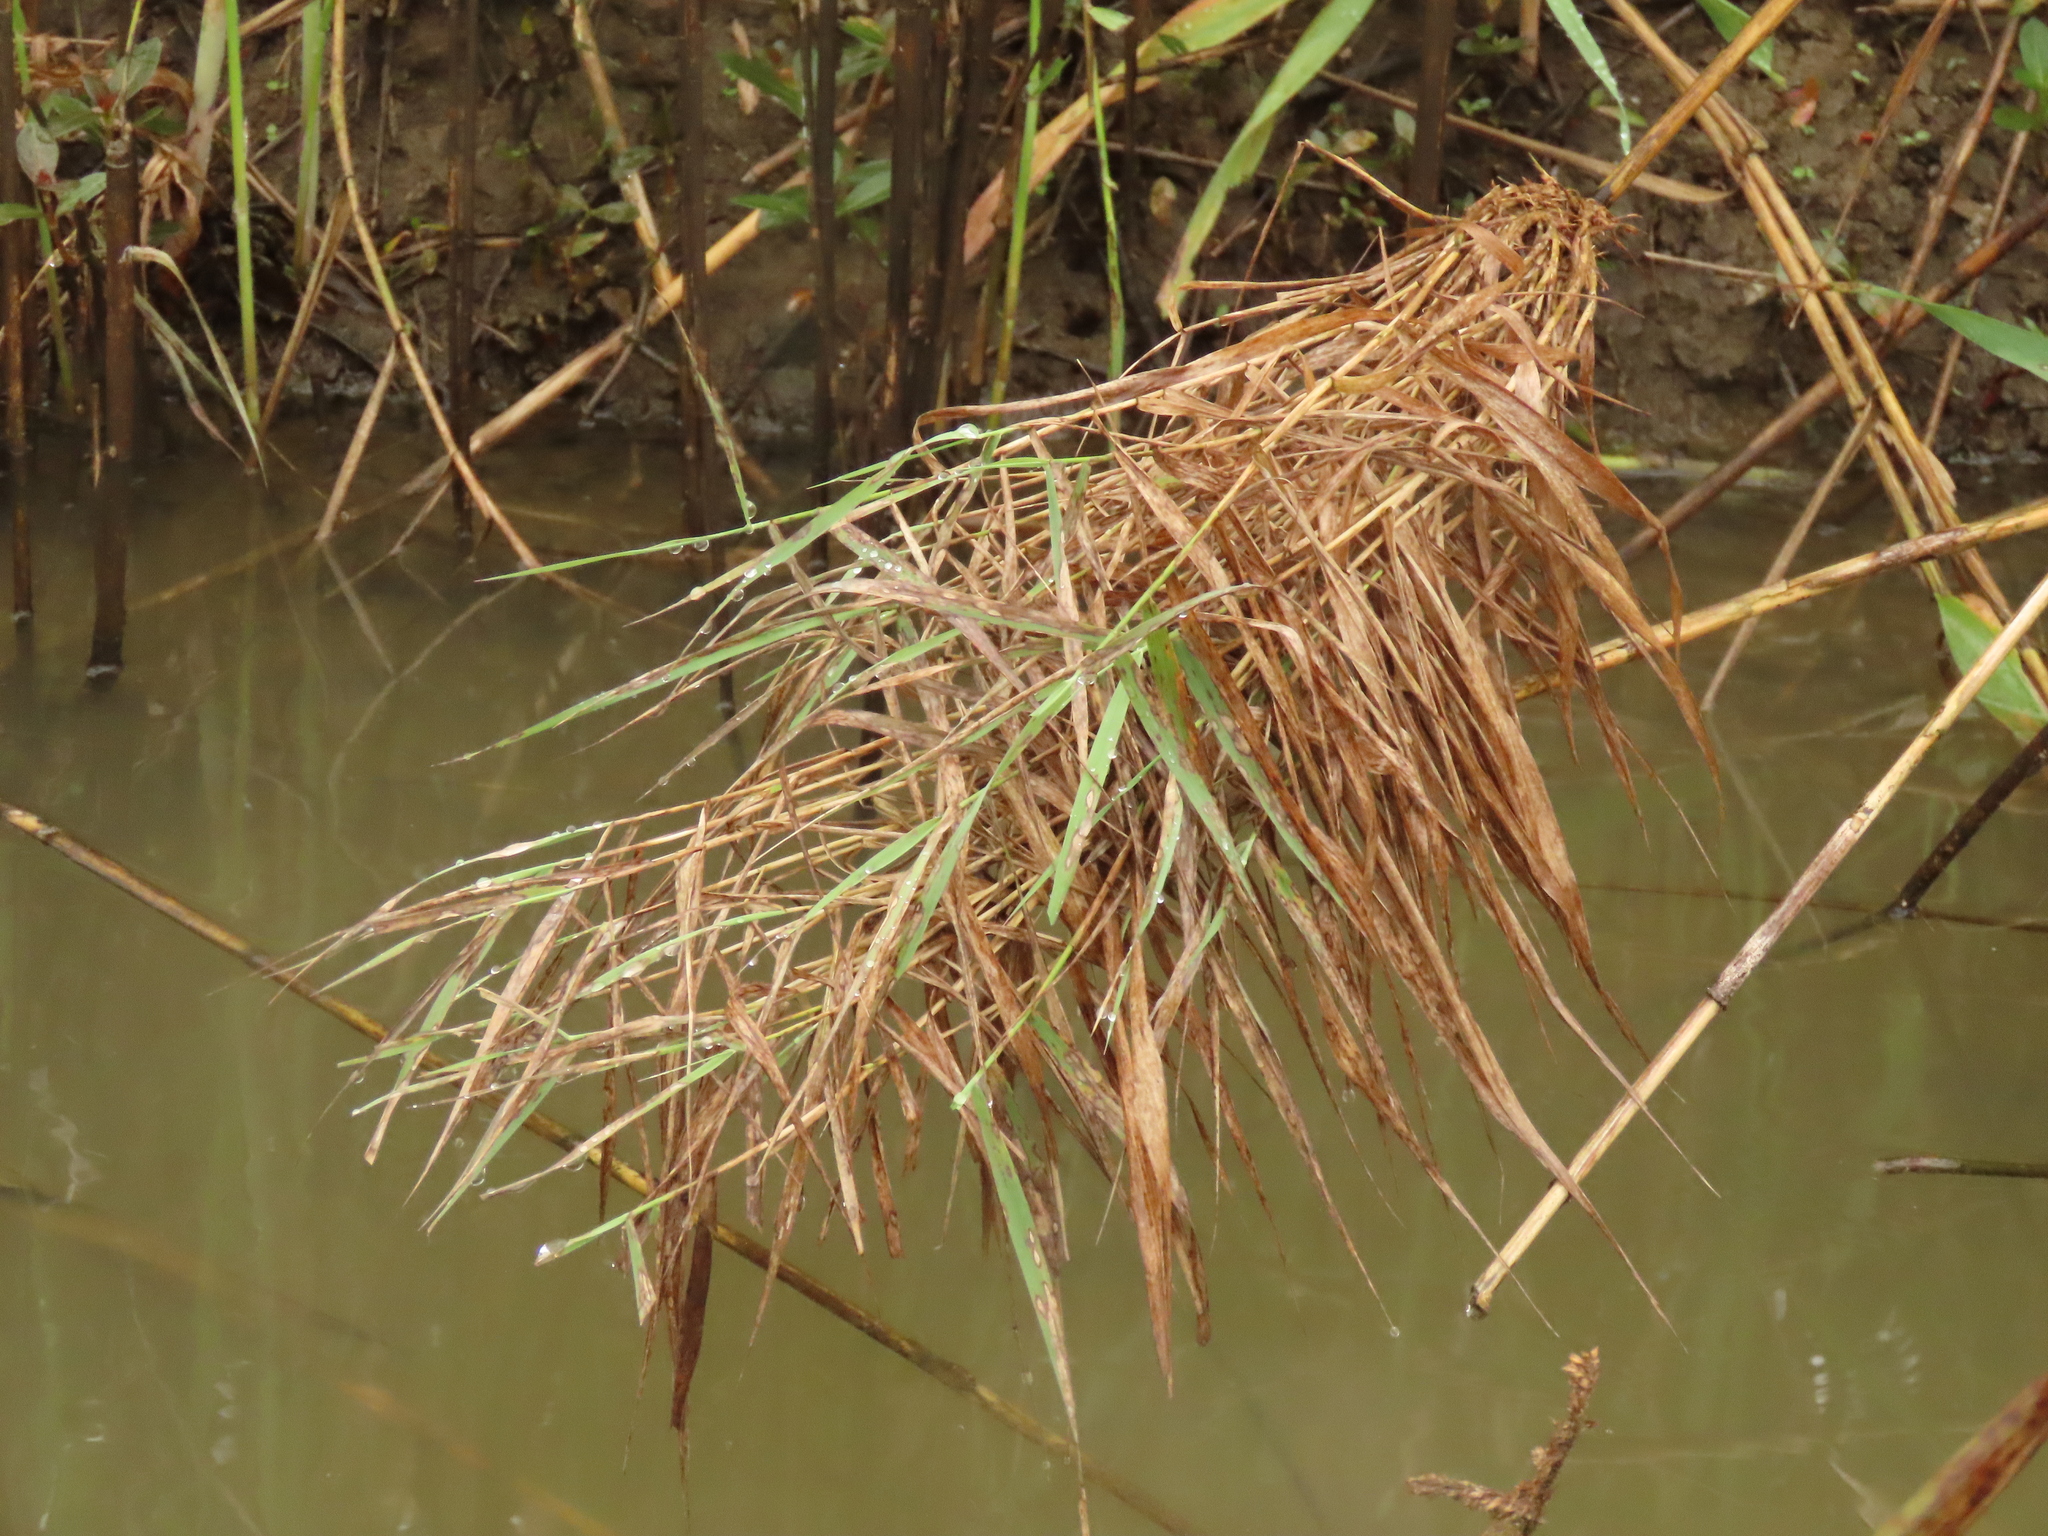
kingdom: Plantae
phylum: Tracheophyta
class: Liliopsida
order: Poales
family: Poaceae
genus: Phragmites
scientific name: Phragmites australis
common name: Common reed
